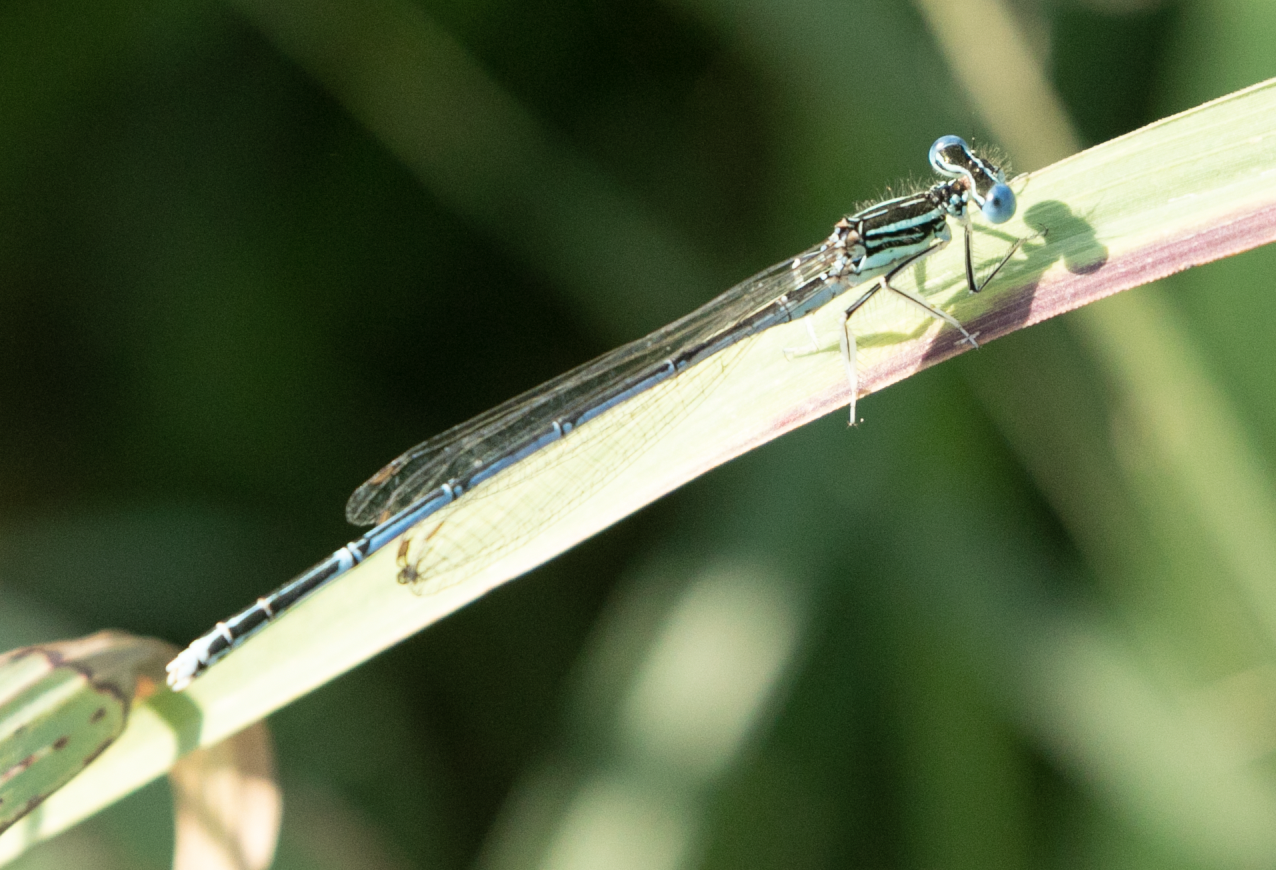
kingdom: Animalia
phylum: Arthropoda
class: Insecta
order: Odonata
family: Platycnemididae
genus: Platycnemis
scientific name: Platycnemis pennipes
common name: White-legged damselfly
